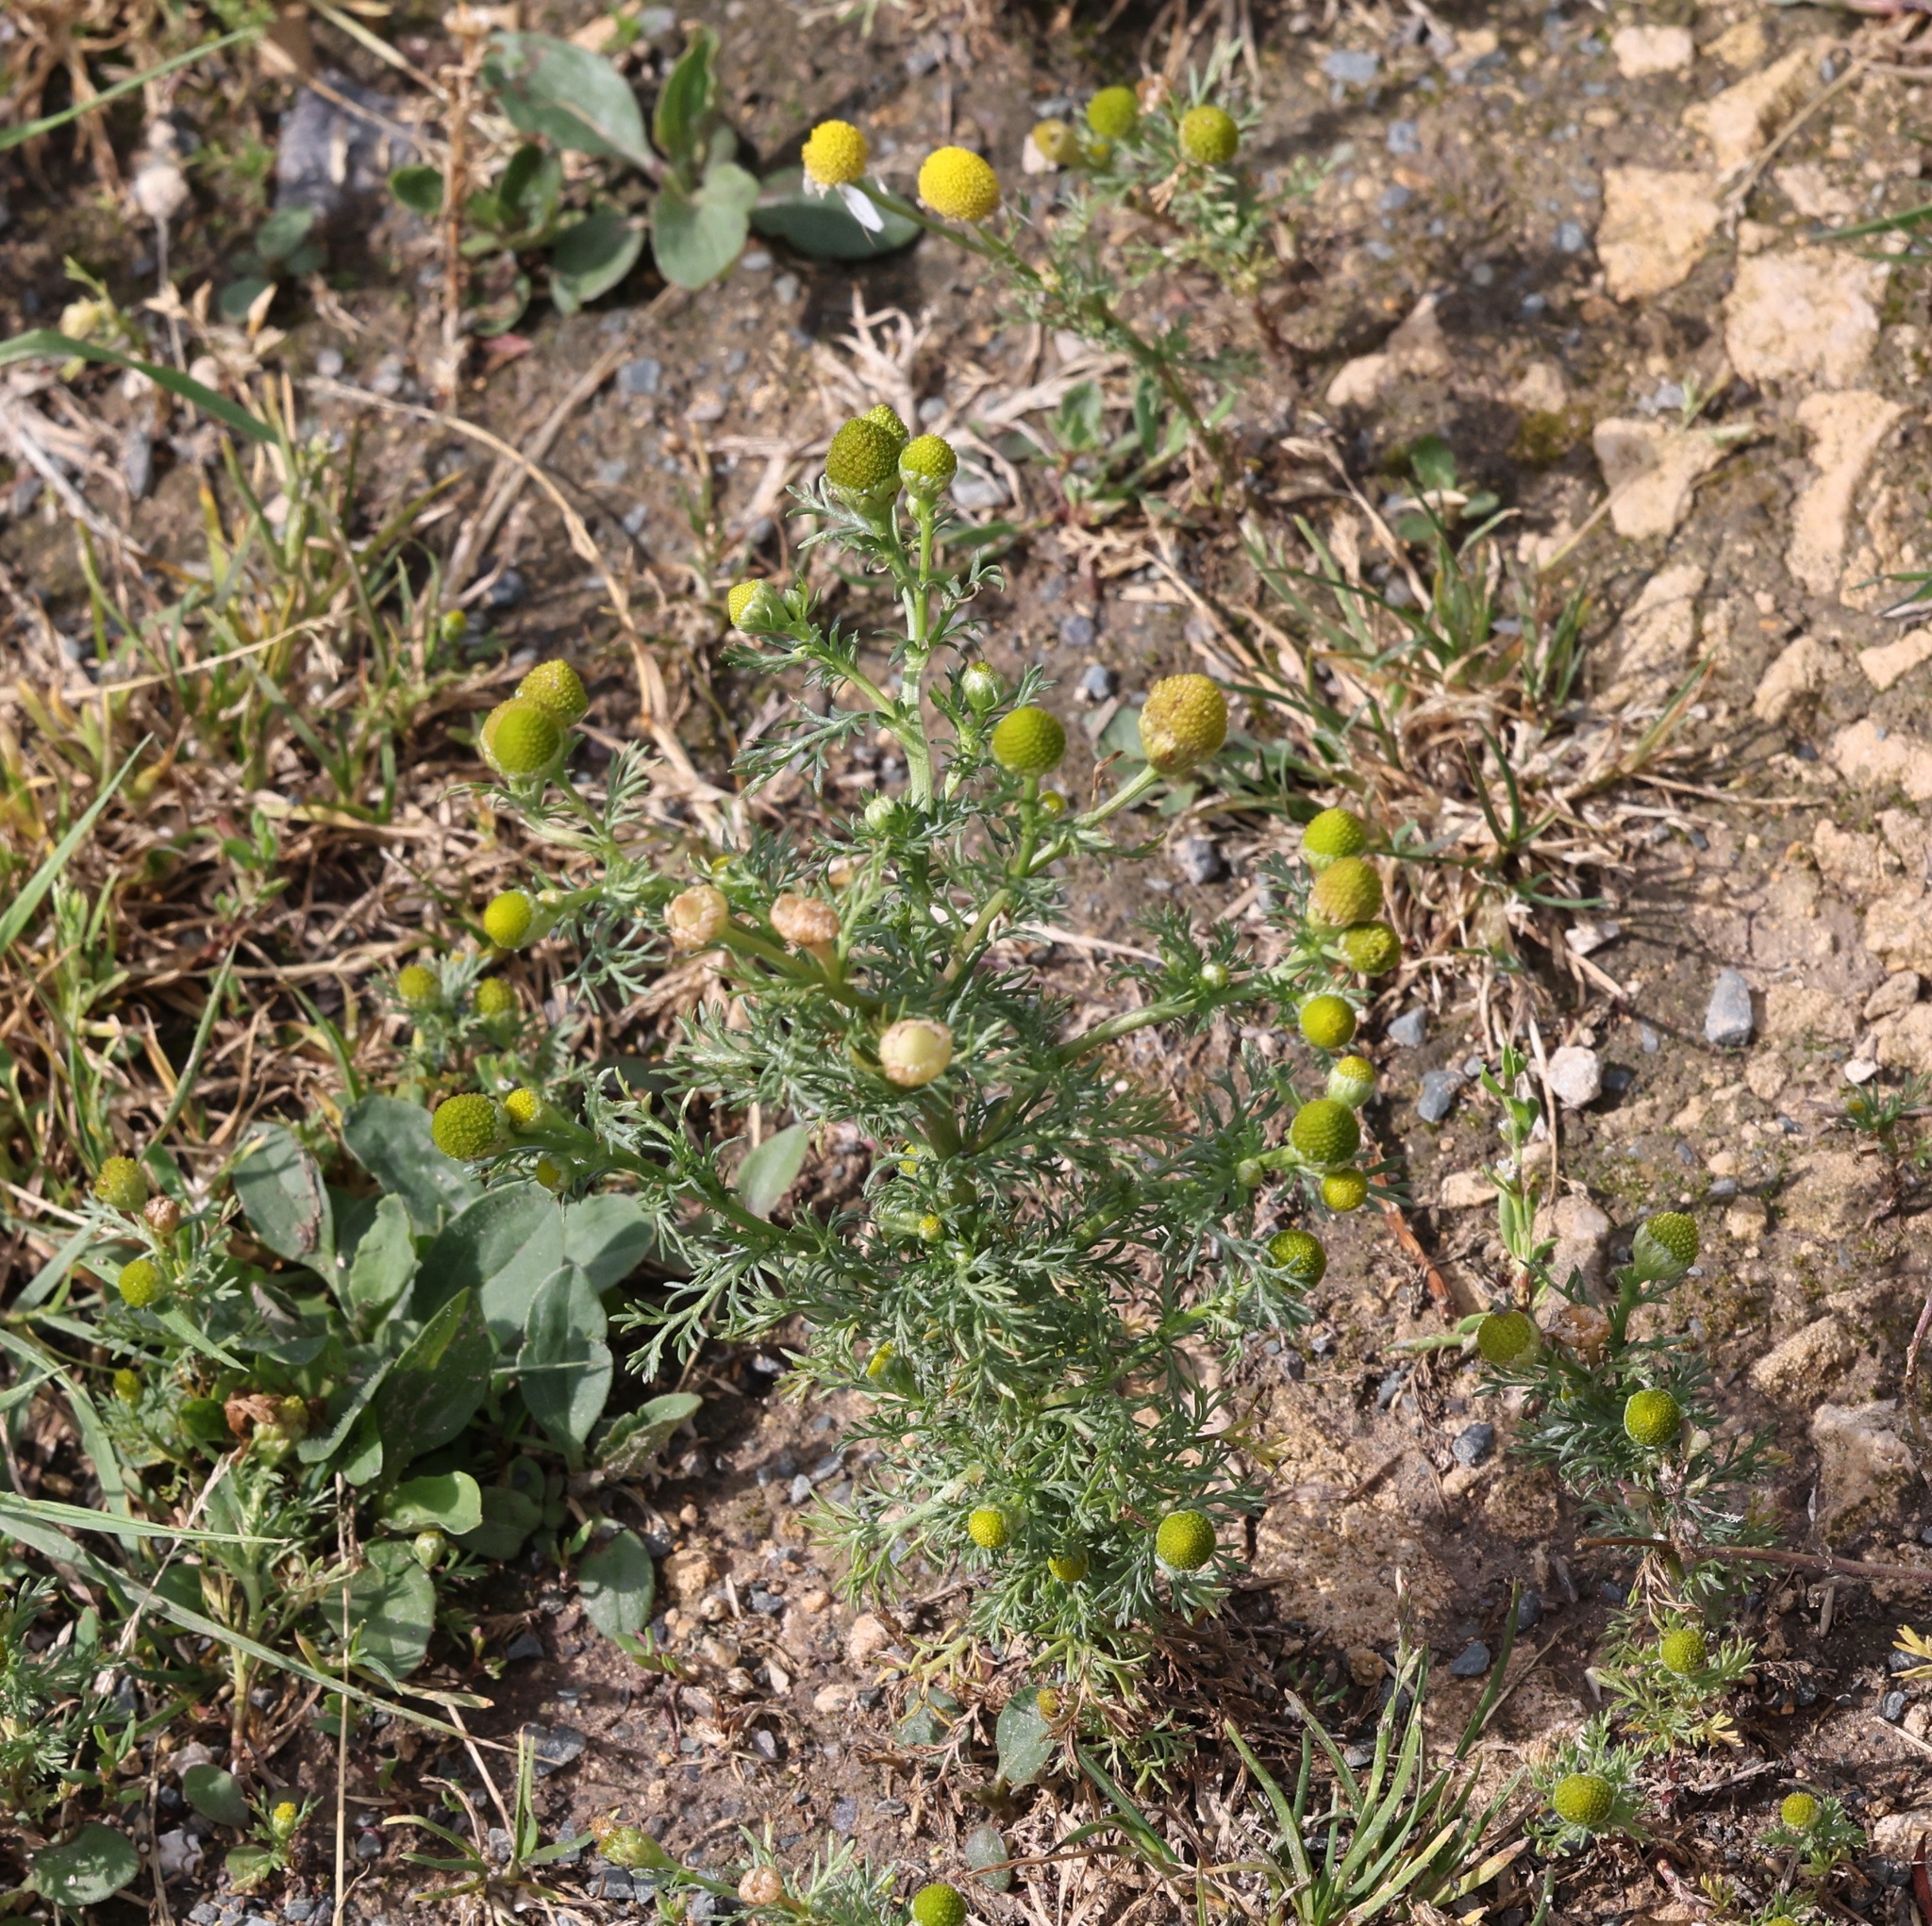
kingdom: Plantae
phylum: Tracheophyta
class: Magnoliopsida
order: Asterales
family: Asteraceae
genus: Matricaria
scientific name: Matricaria discoidea
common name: Disc mayweed
